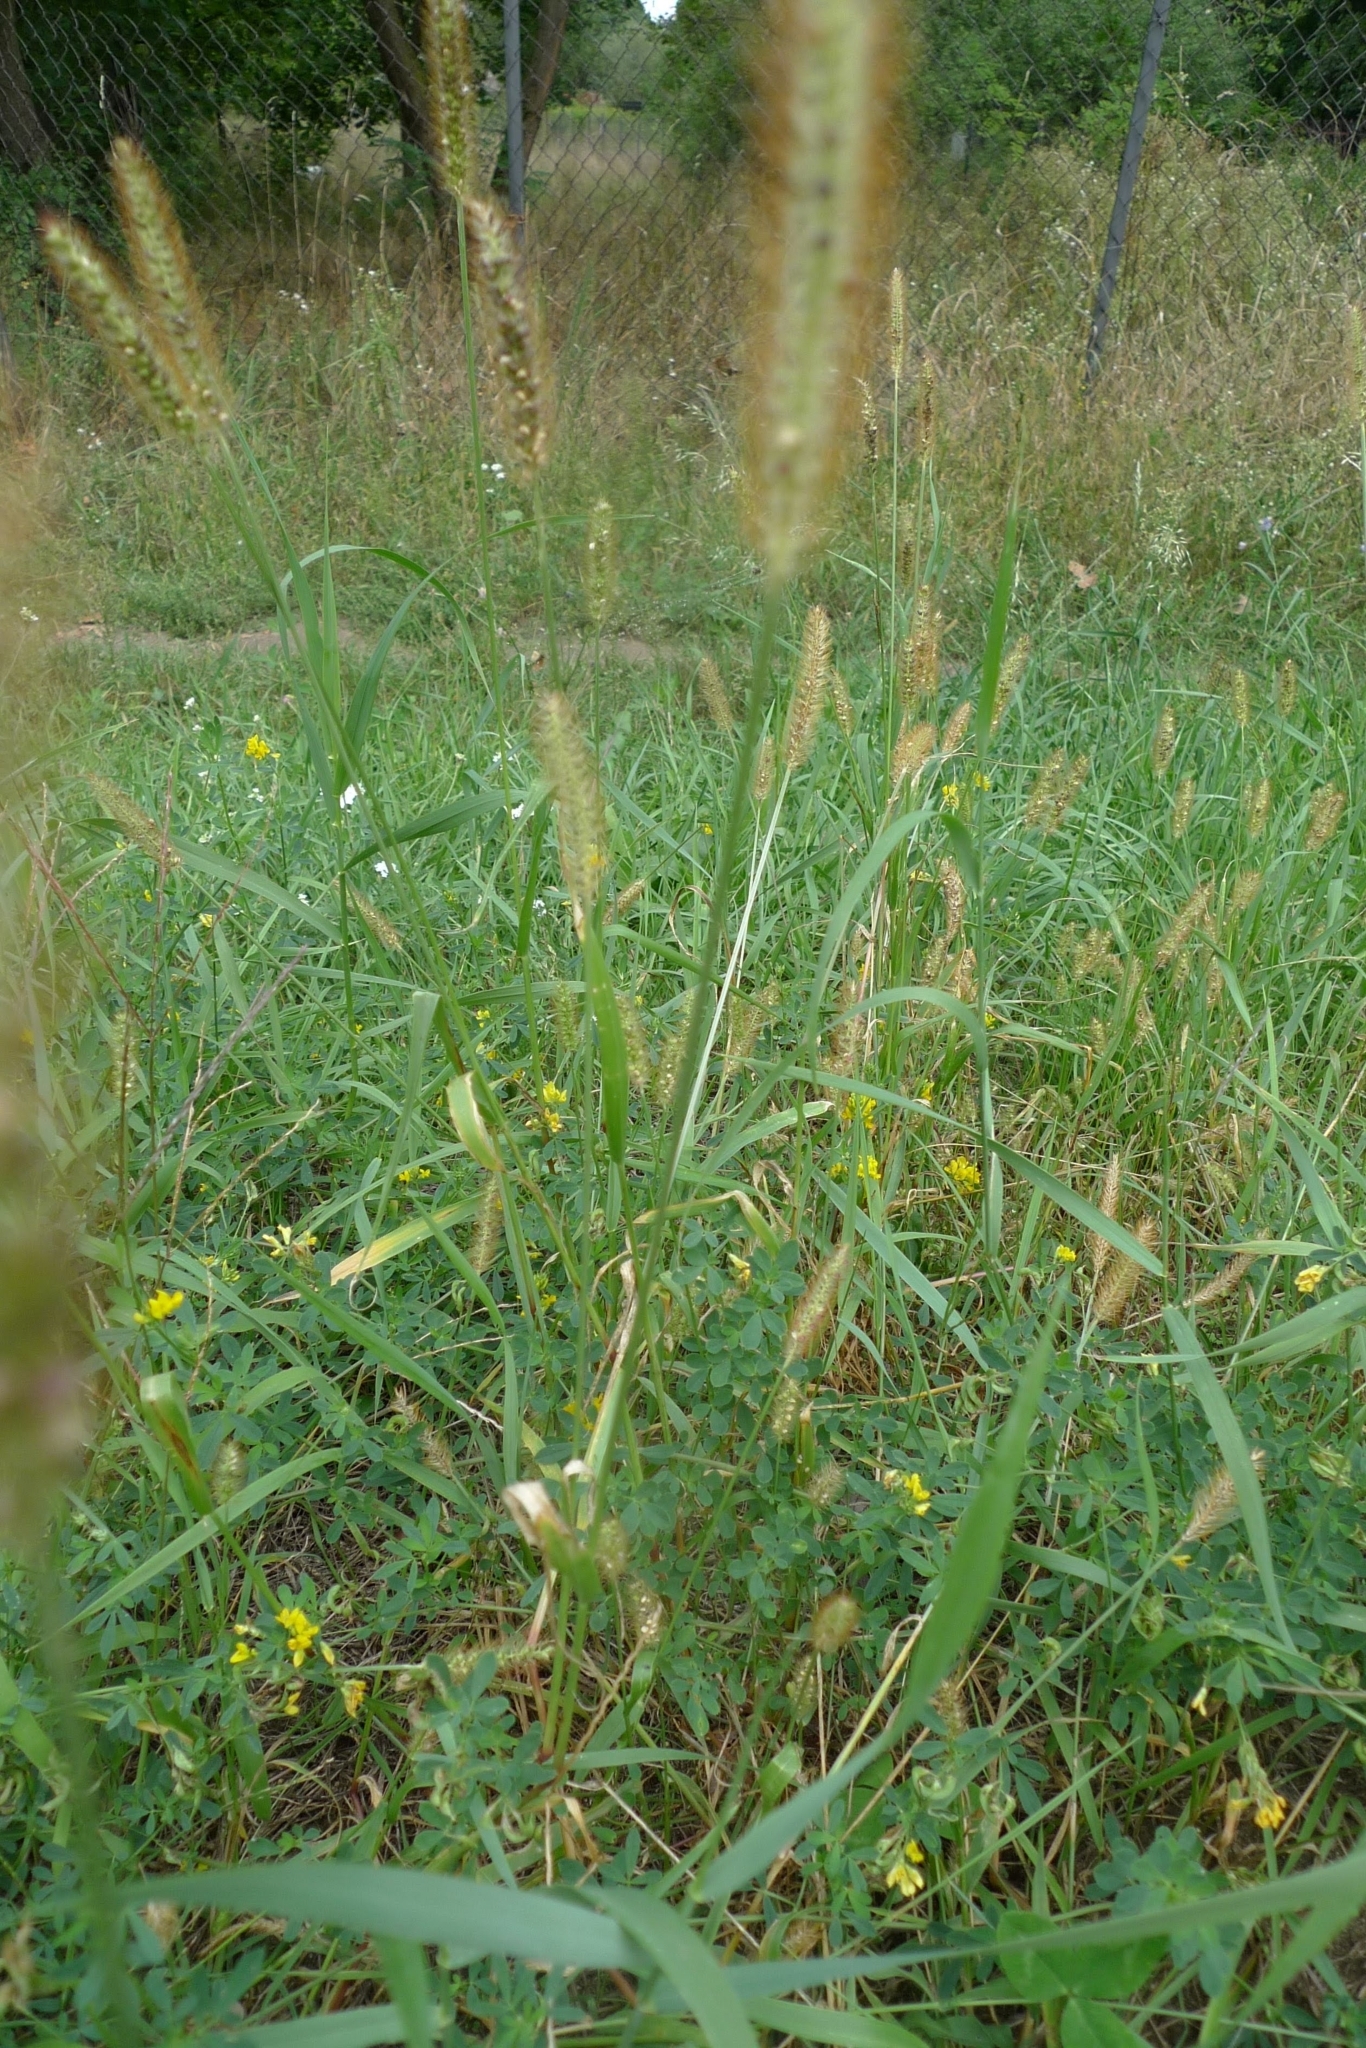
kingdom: Plantae
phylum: Tracheophyta
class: Liliopsida
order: Poales
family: Poaceae
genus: Setaria
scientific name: Setaria pumila
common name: Yellow bristle-grass
